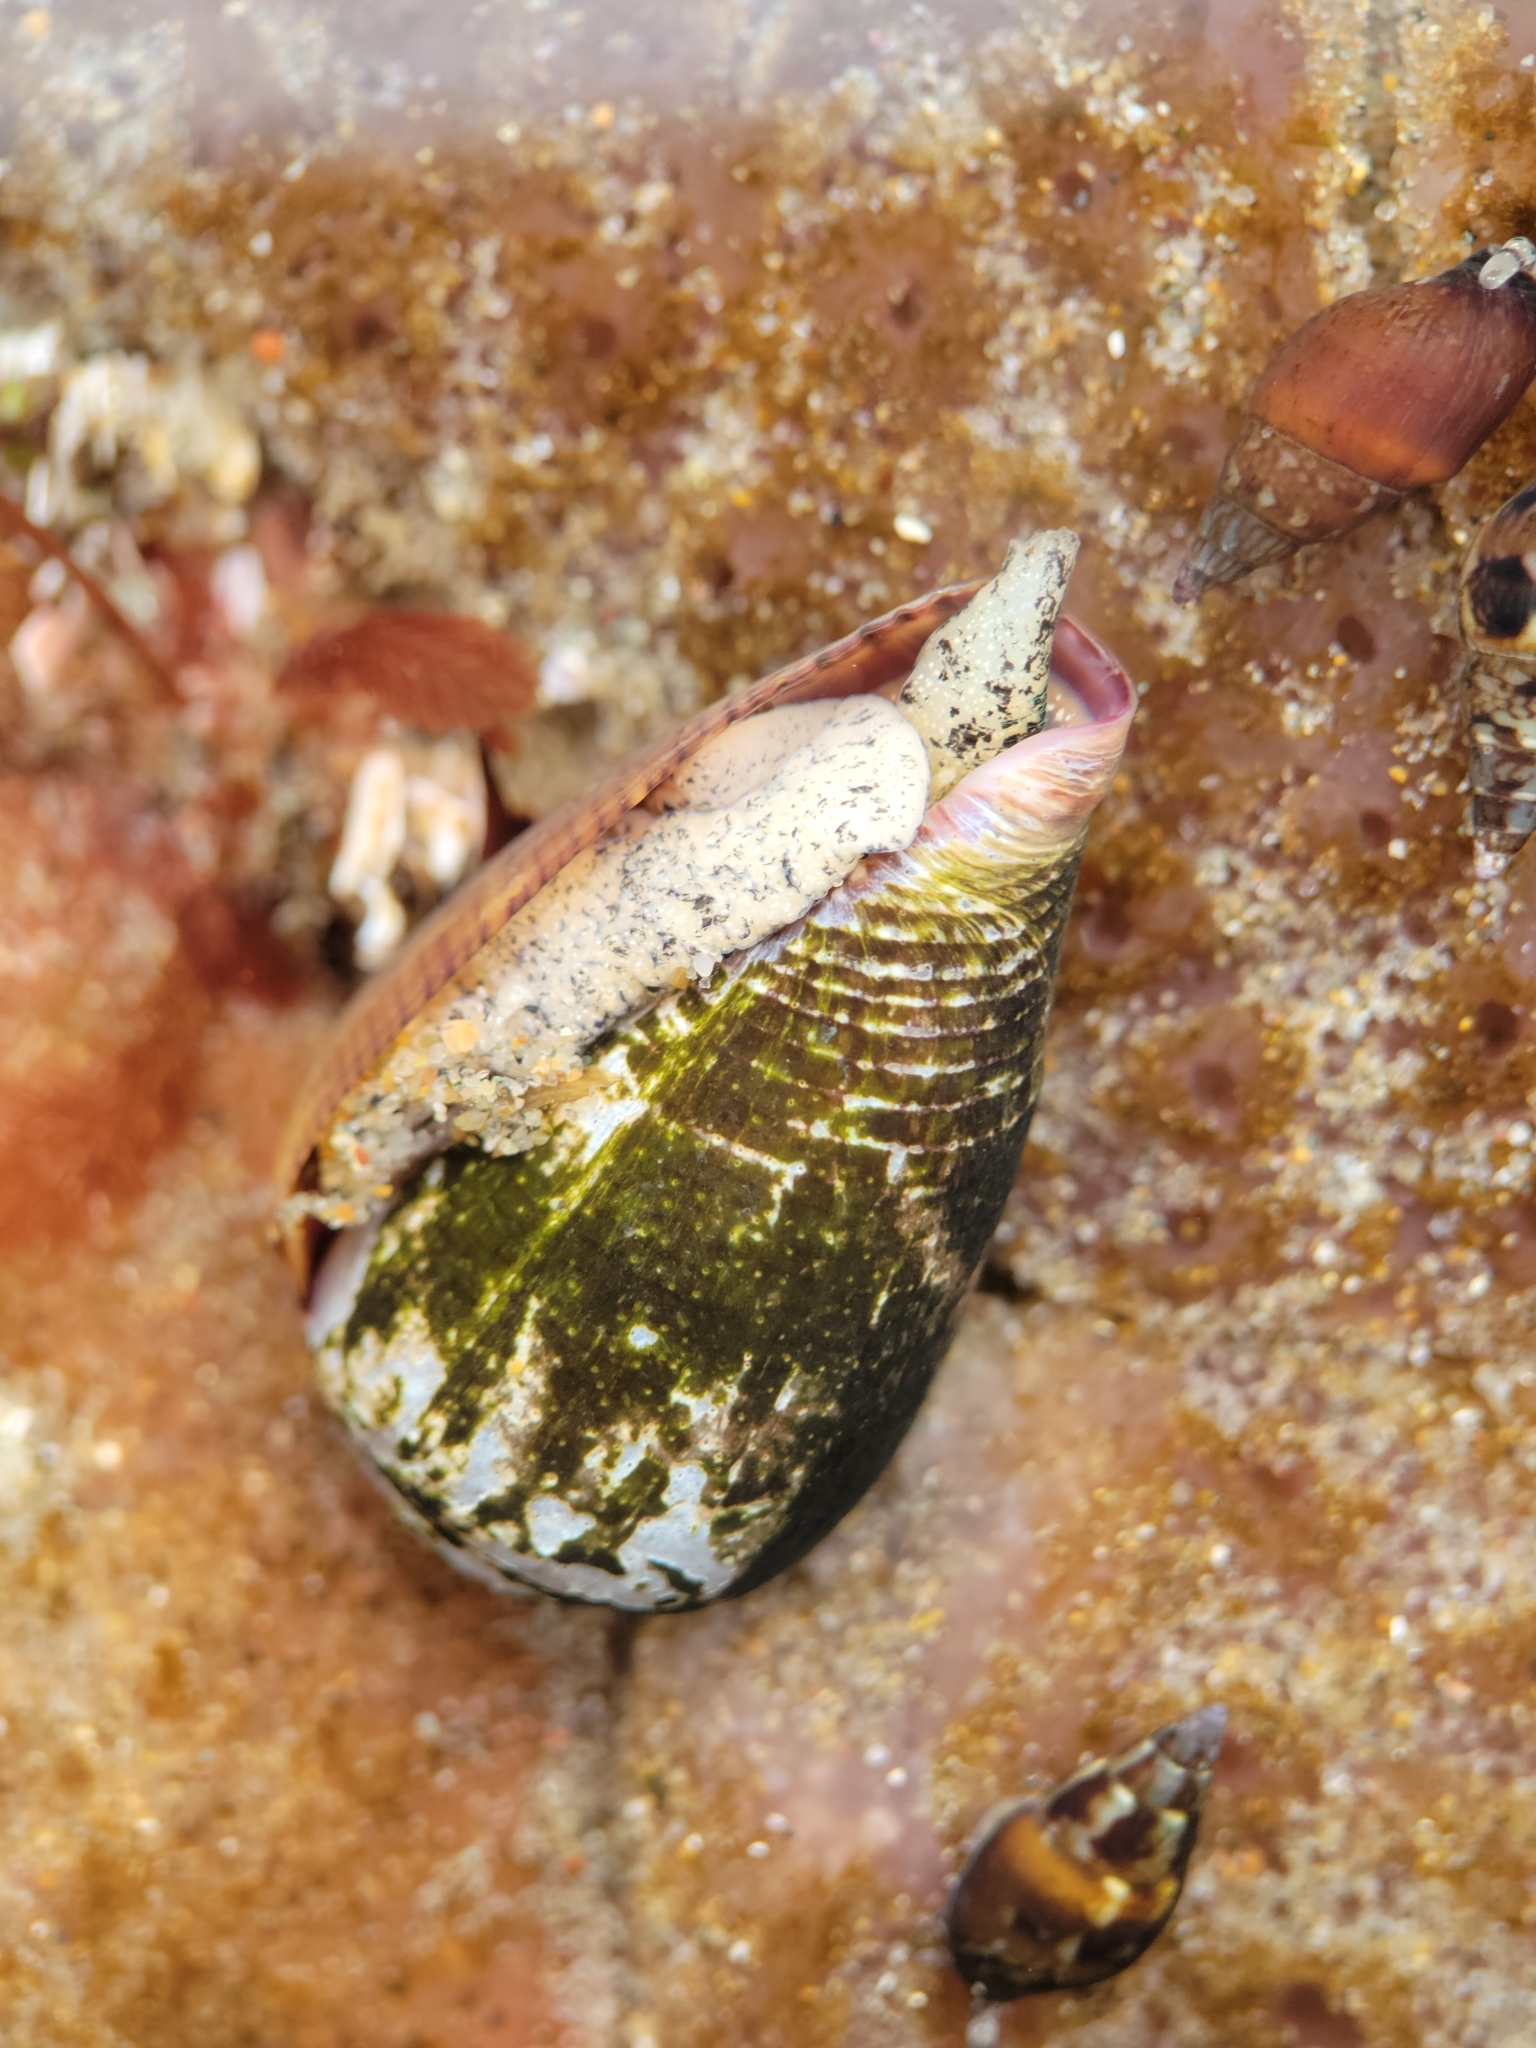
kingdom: Animalia
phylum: Mollusca
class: Gastropoda
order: Neogastropoda
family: Conidae
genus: Californiconus
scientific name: Californiconus californicus
